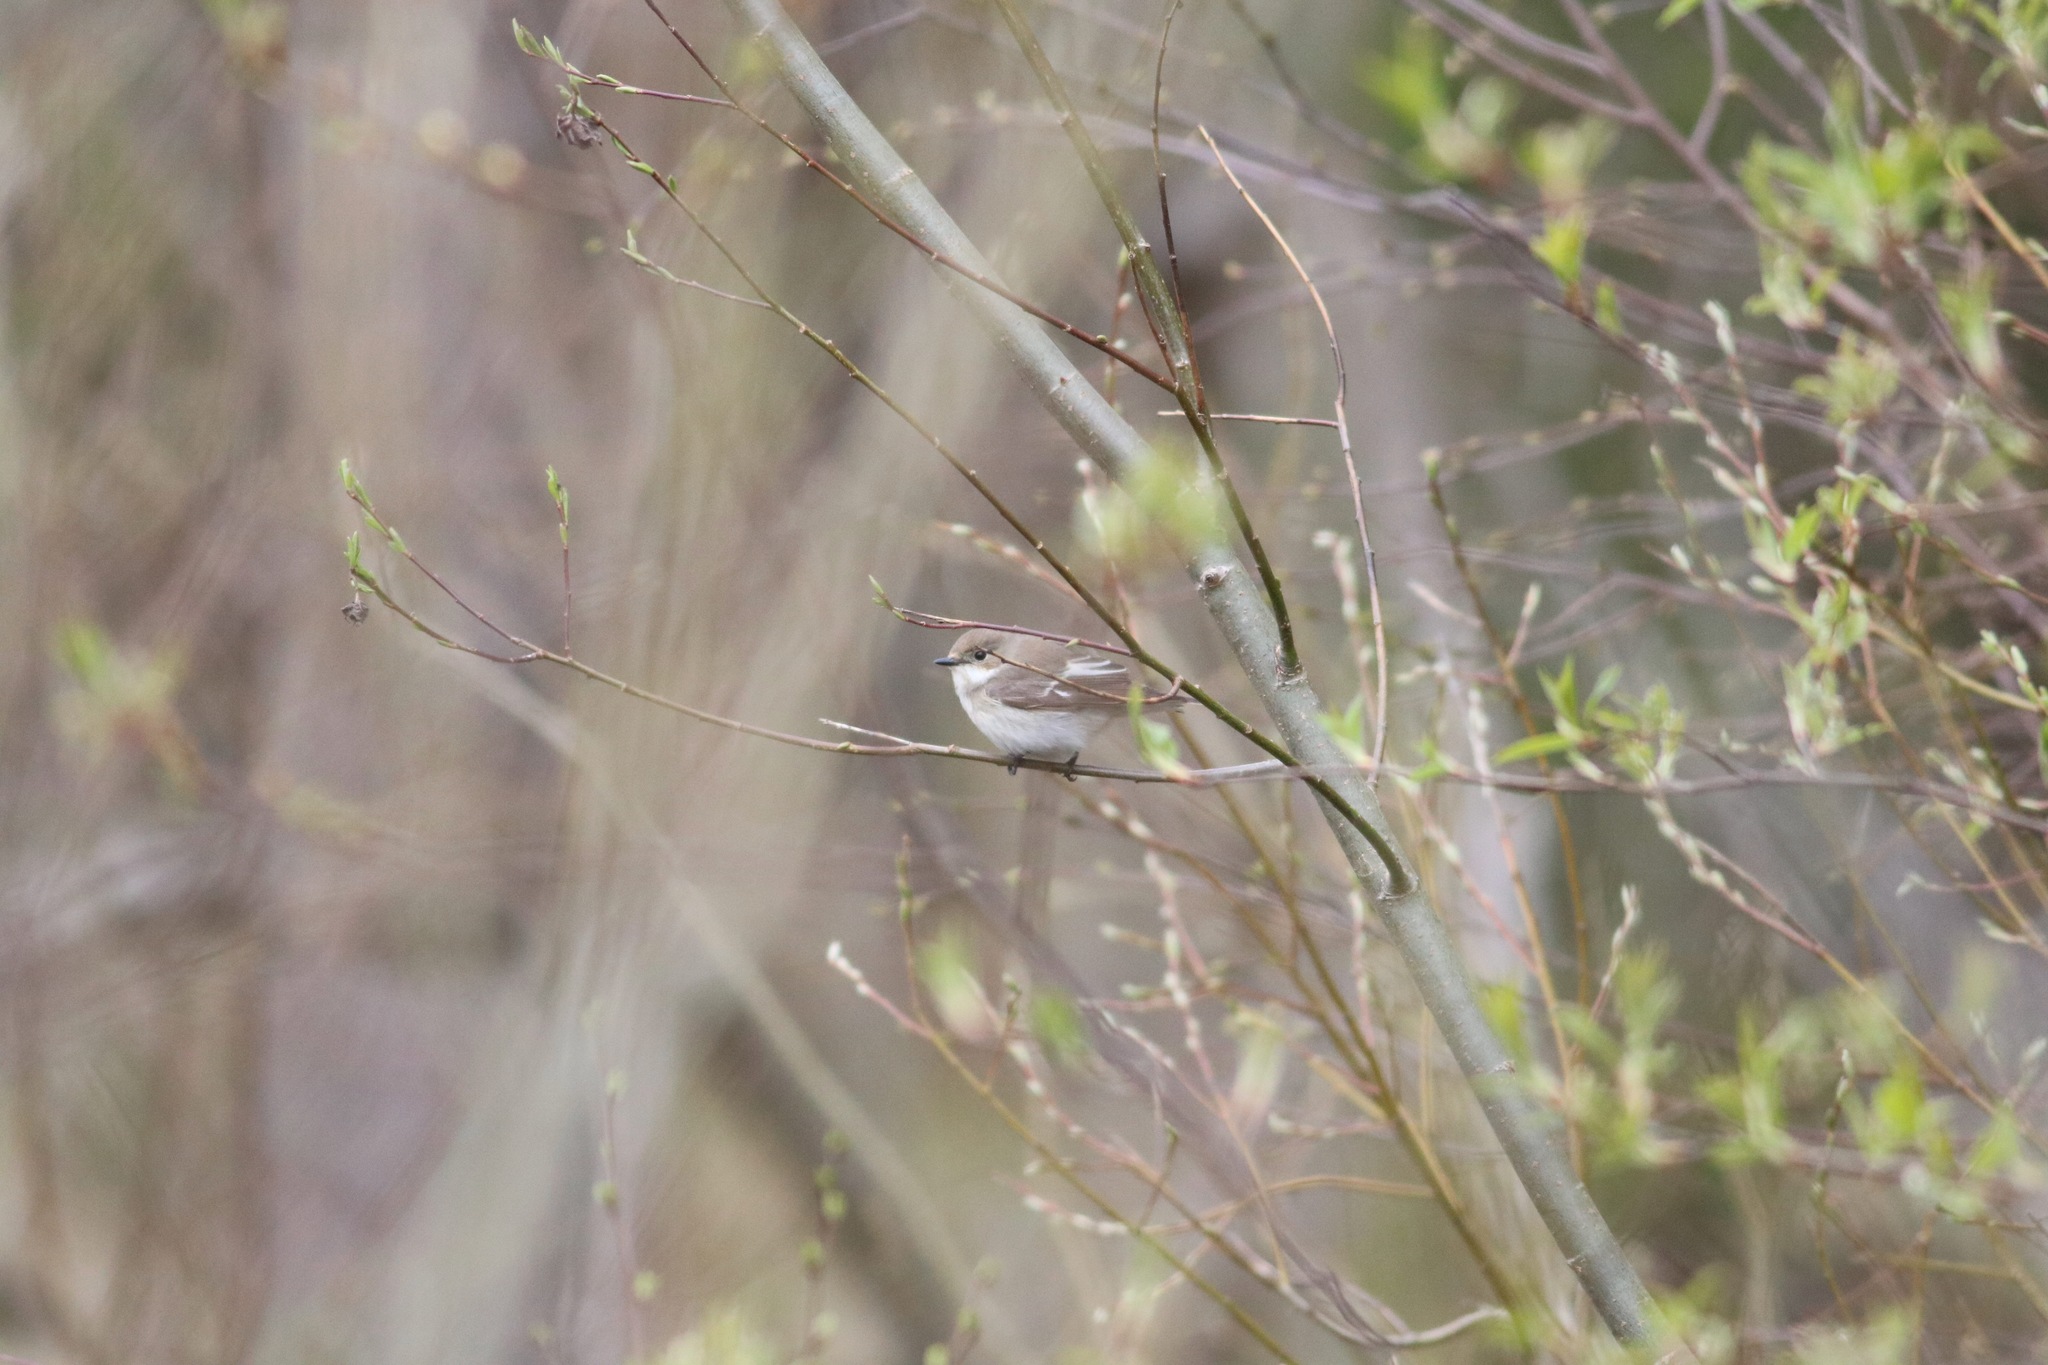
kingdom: Animalia
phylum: Chordata
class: Aves
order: Passeriformes
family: Muscicapidae
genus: Ficedula
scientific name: Ficedula hypoleuca
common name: European pied flycatcher
